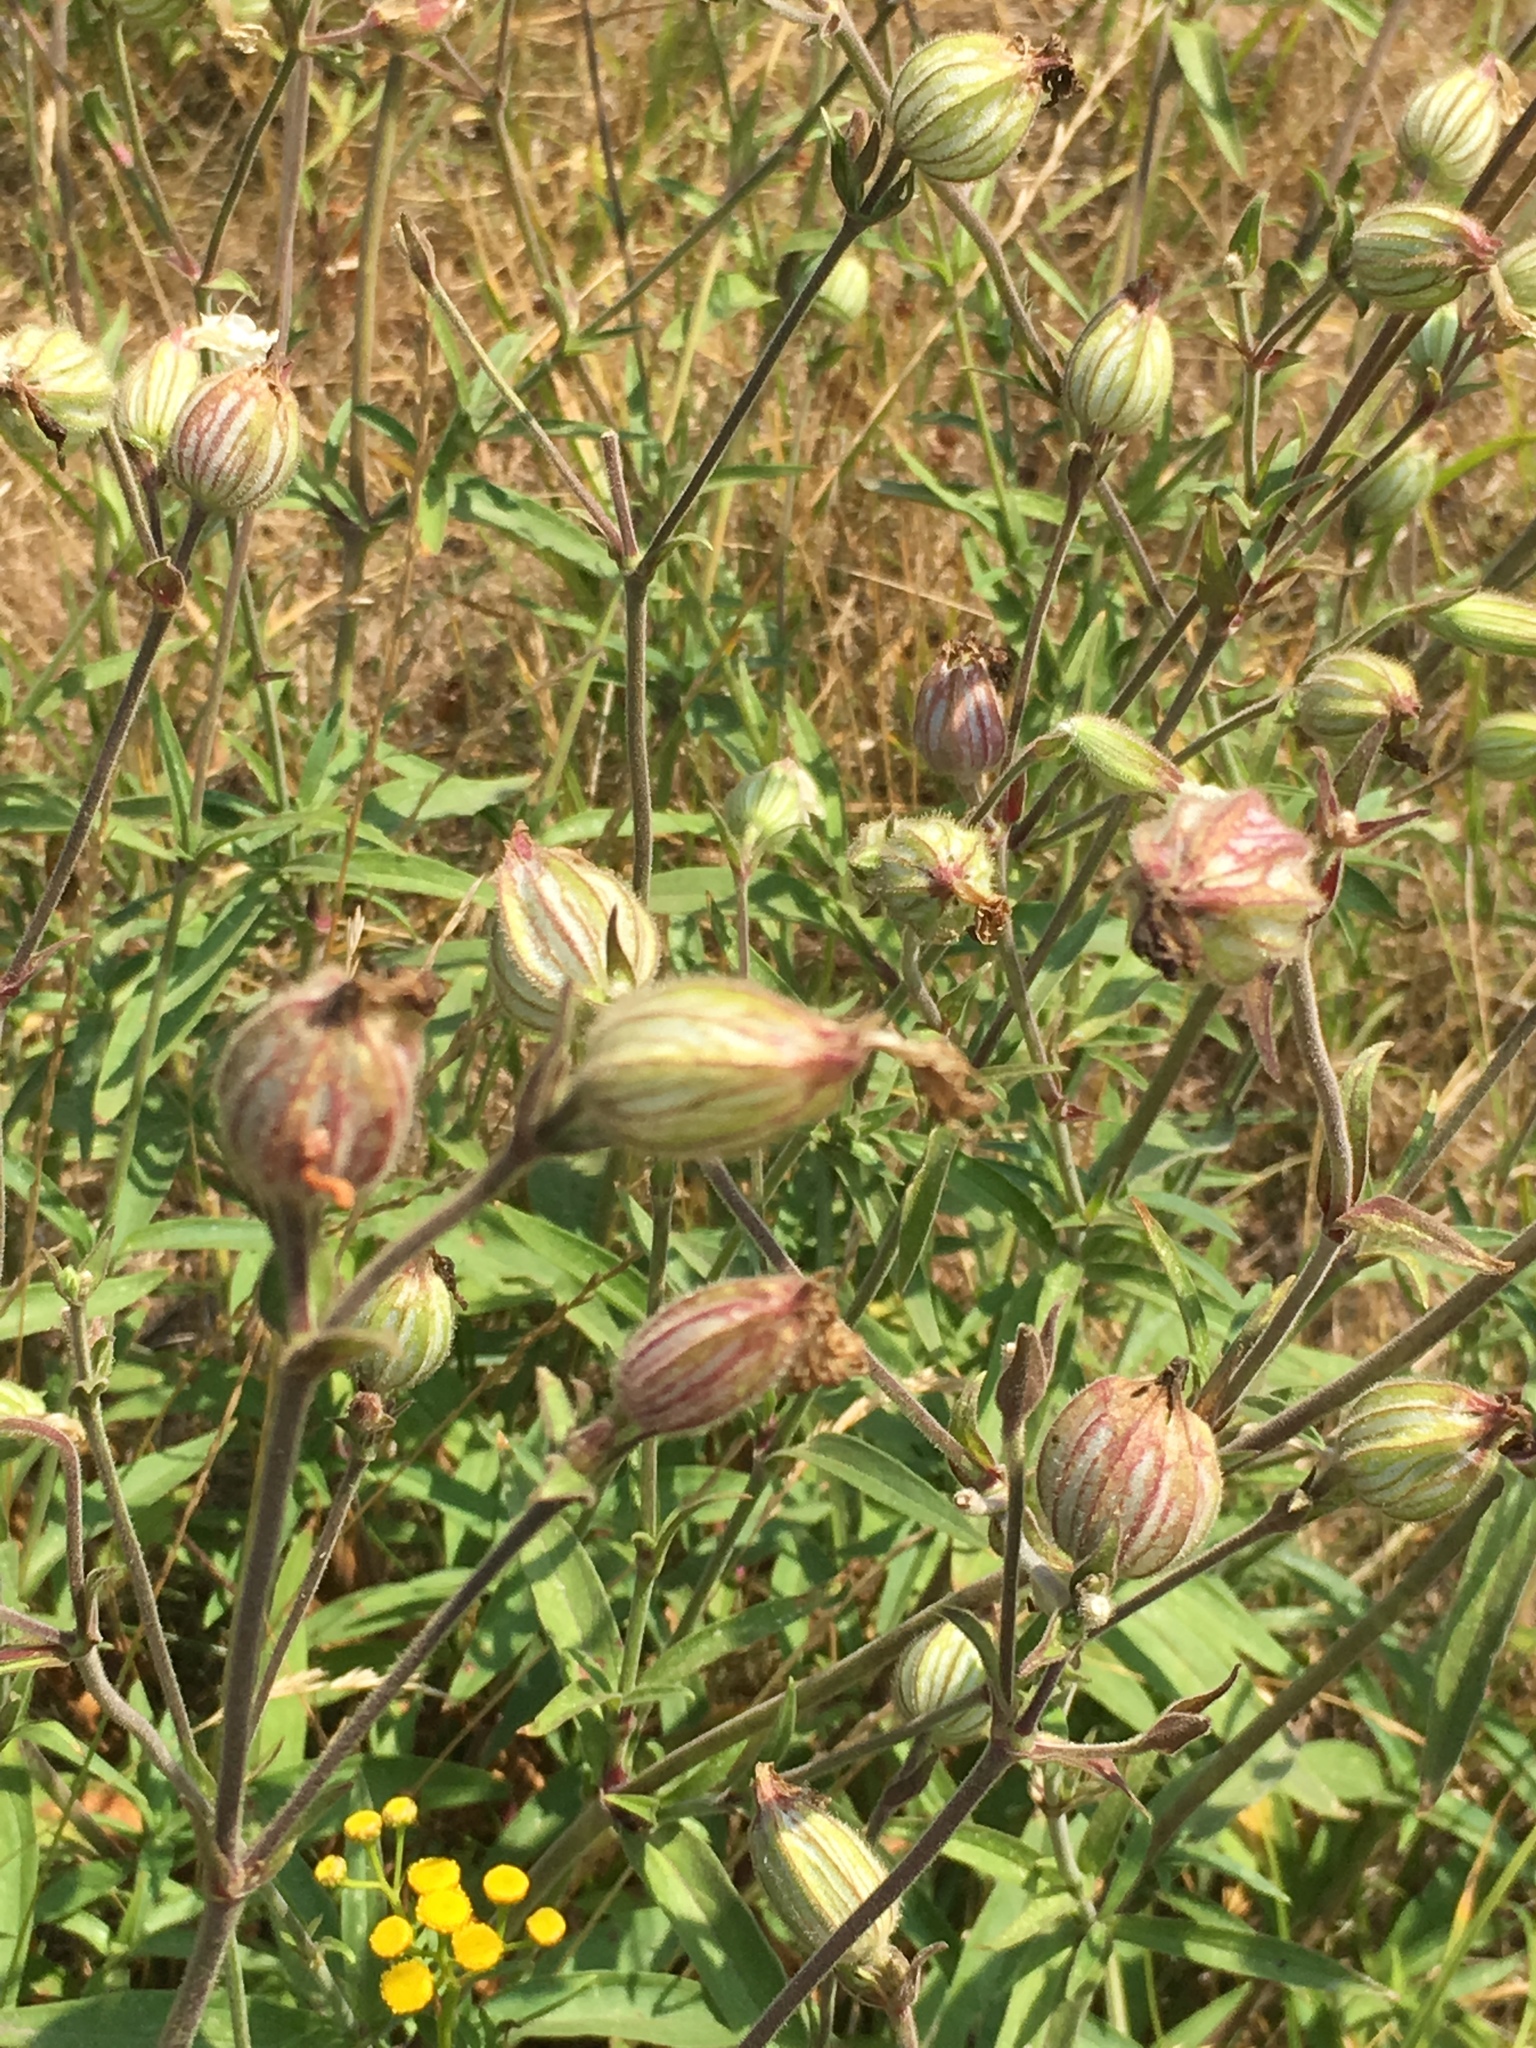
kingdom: Plantae
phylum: Tracheophyta
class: Magnoliopsida
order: Caryophyllales
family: Caryophyllaceae
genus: Silene
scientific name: Silene latifolia
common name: White campion
